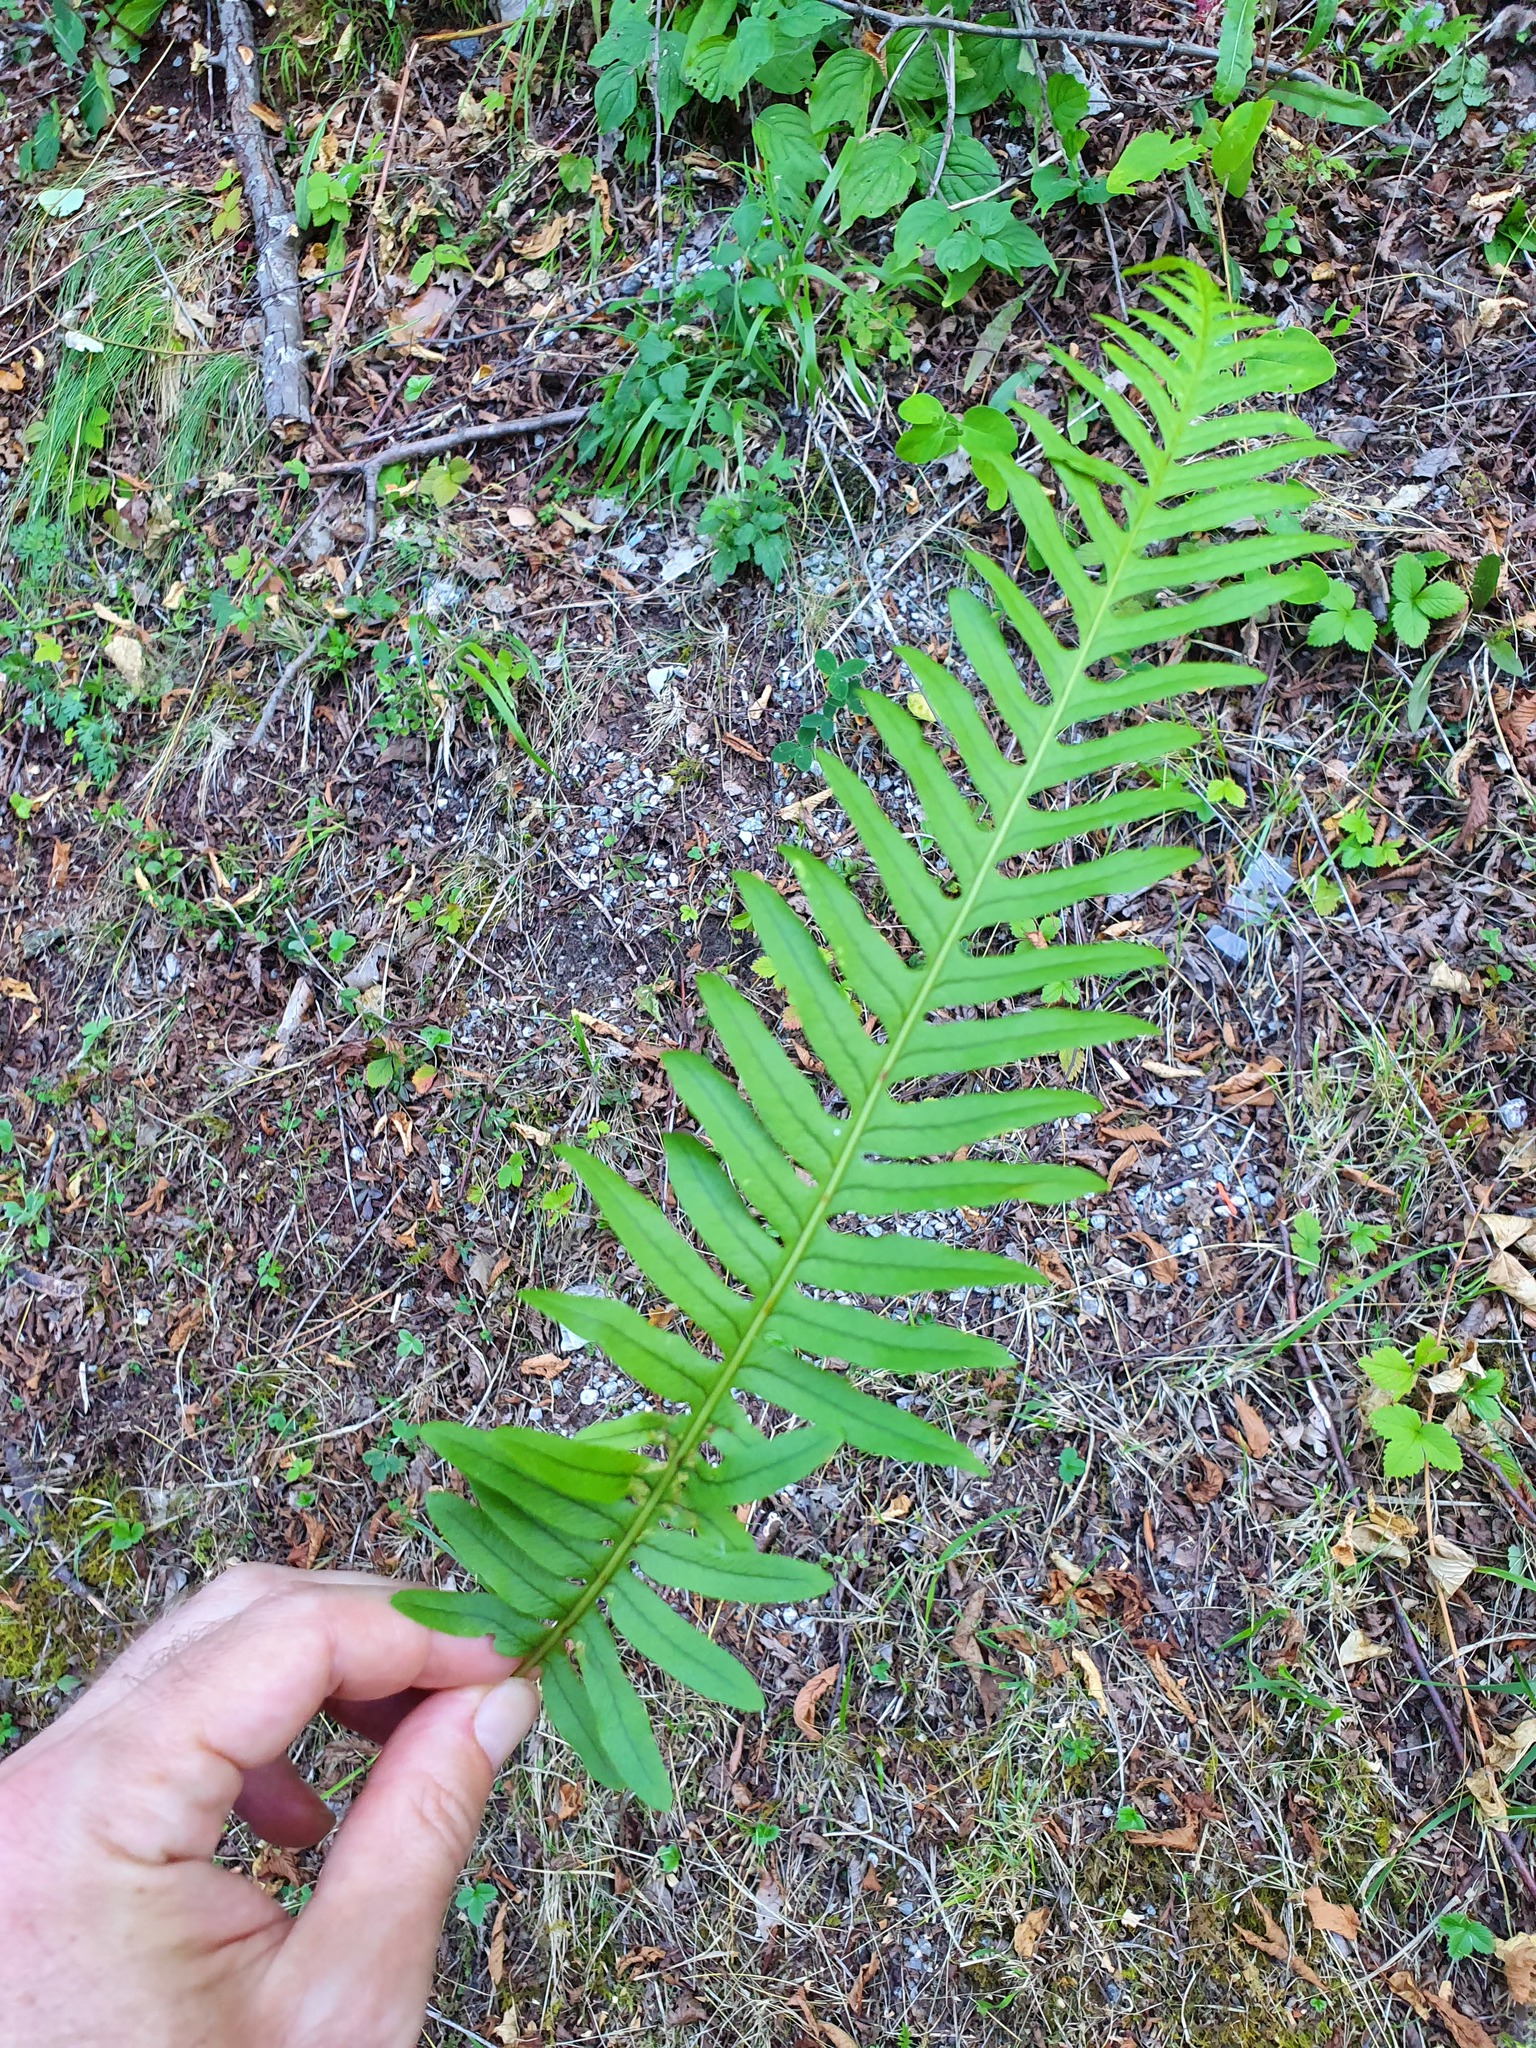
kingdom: Plantae
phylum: Tracheophyta
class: Polypodiopsida
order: Polypodiales
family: Polypodiaceae
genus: Polypodium
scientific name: Polypodium vulgare
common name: Common polypody
